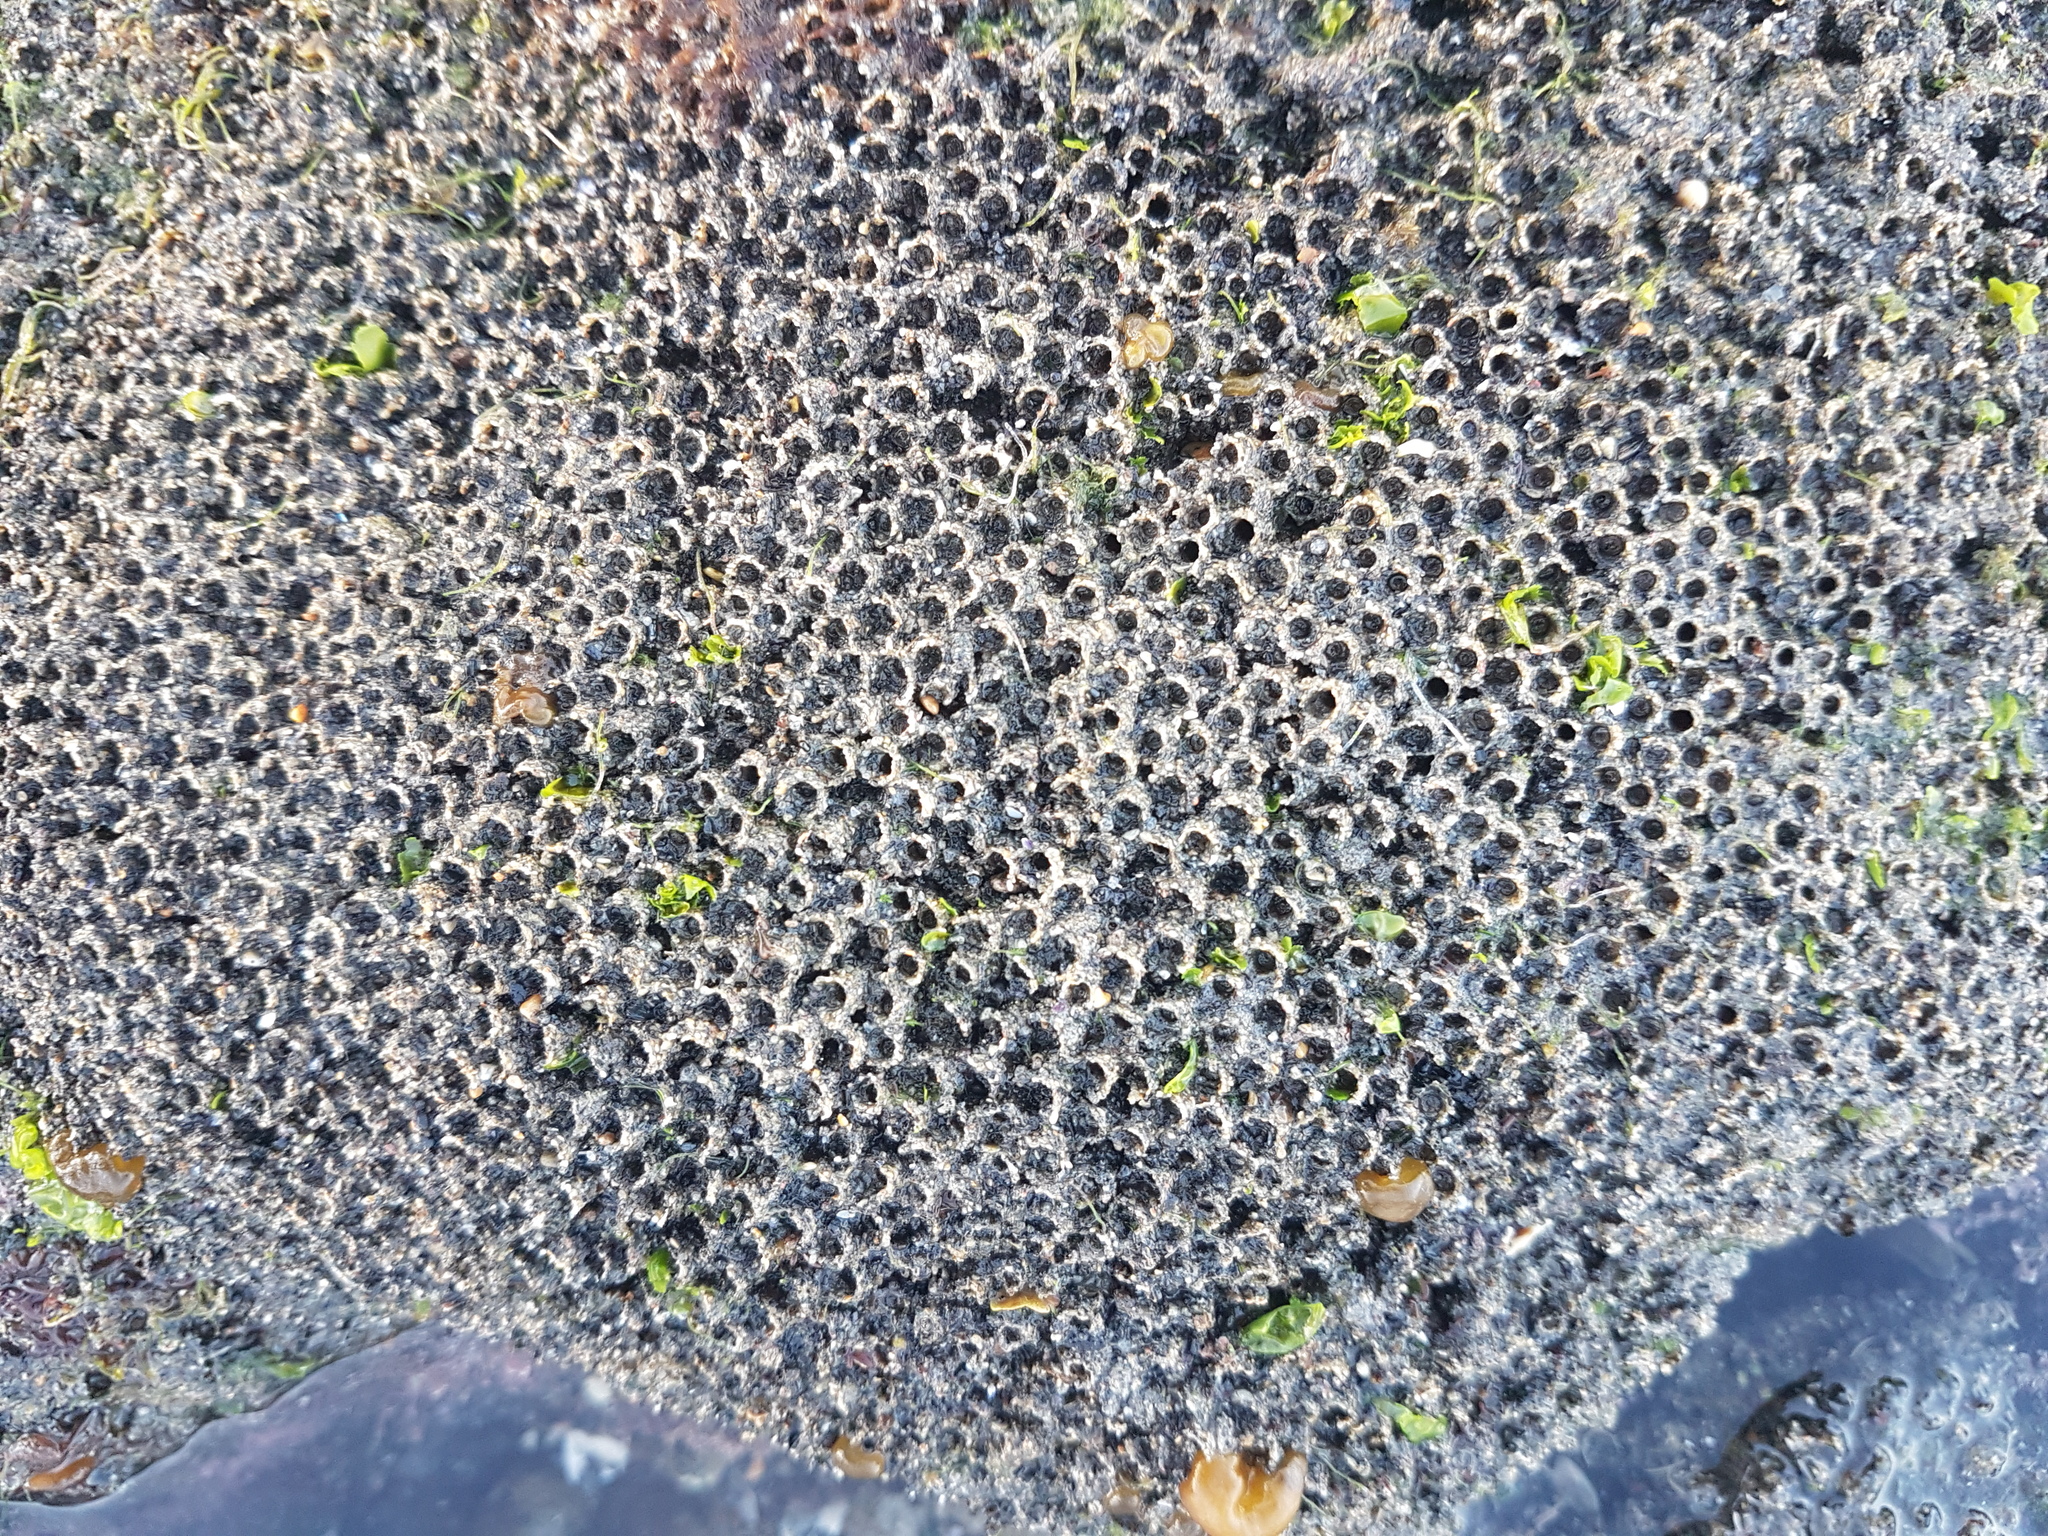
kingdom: Animalia
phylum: Annelida
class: Polychaeta
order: Sabellida
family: Sabellariidae
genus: Neosabellaria
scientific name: Neosabellaria kaiparaensis
